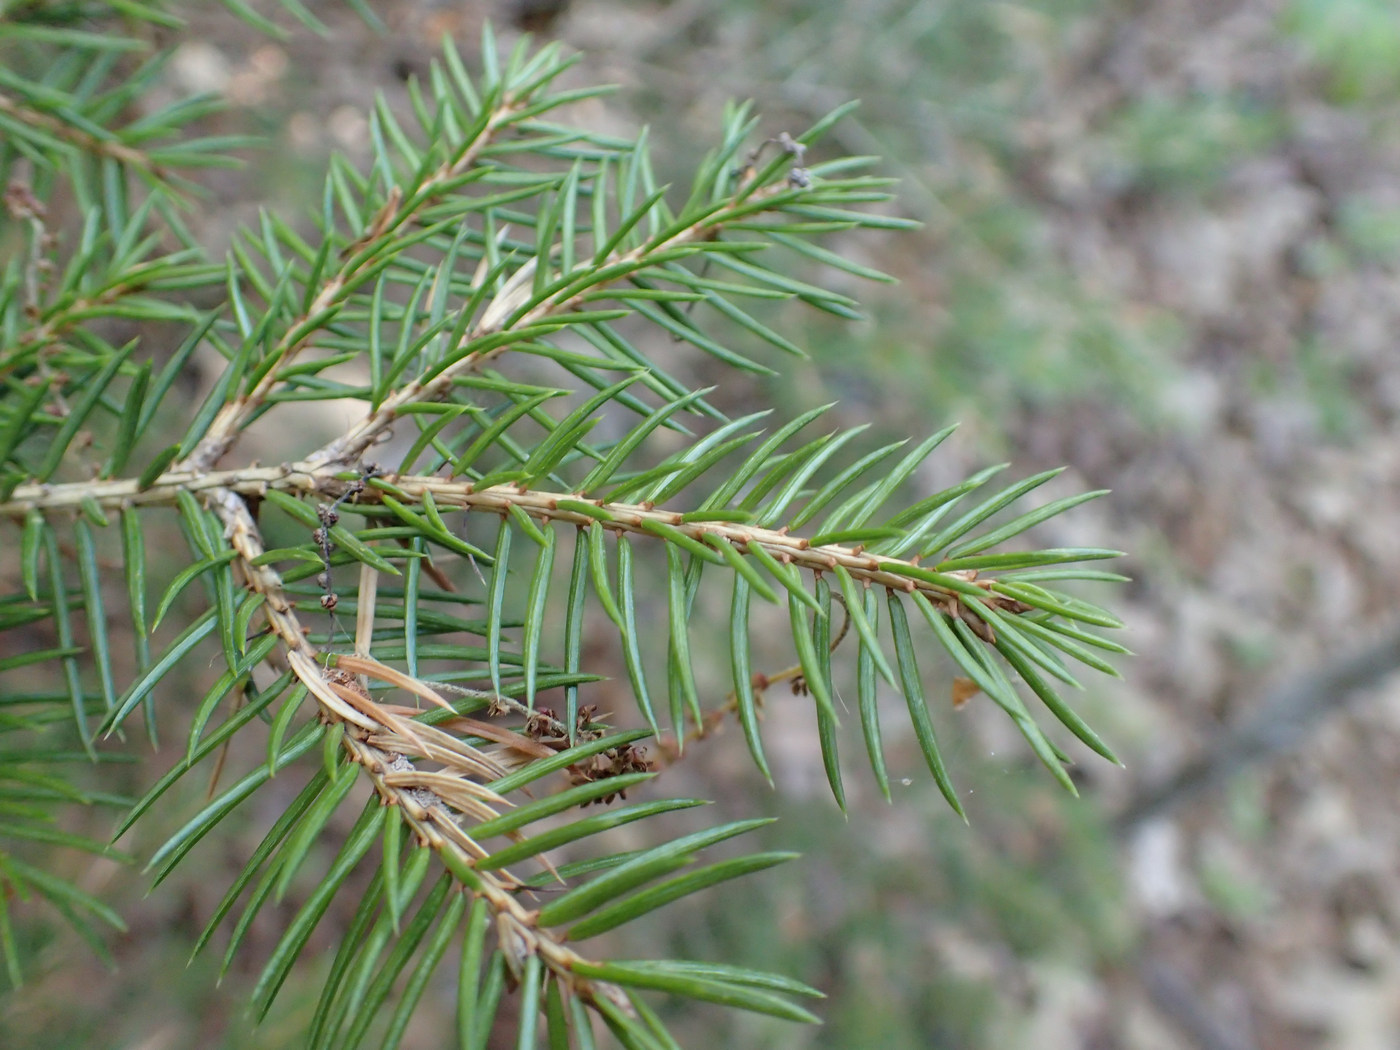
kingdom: Plantae
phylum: Tracheophyta
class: Pinopsida
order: Pinales
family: Pinaceae
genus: Picea
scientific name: Picea rubens
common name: Red spruce
